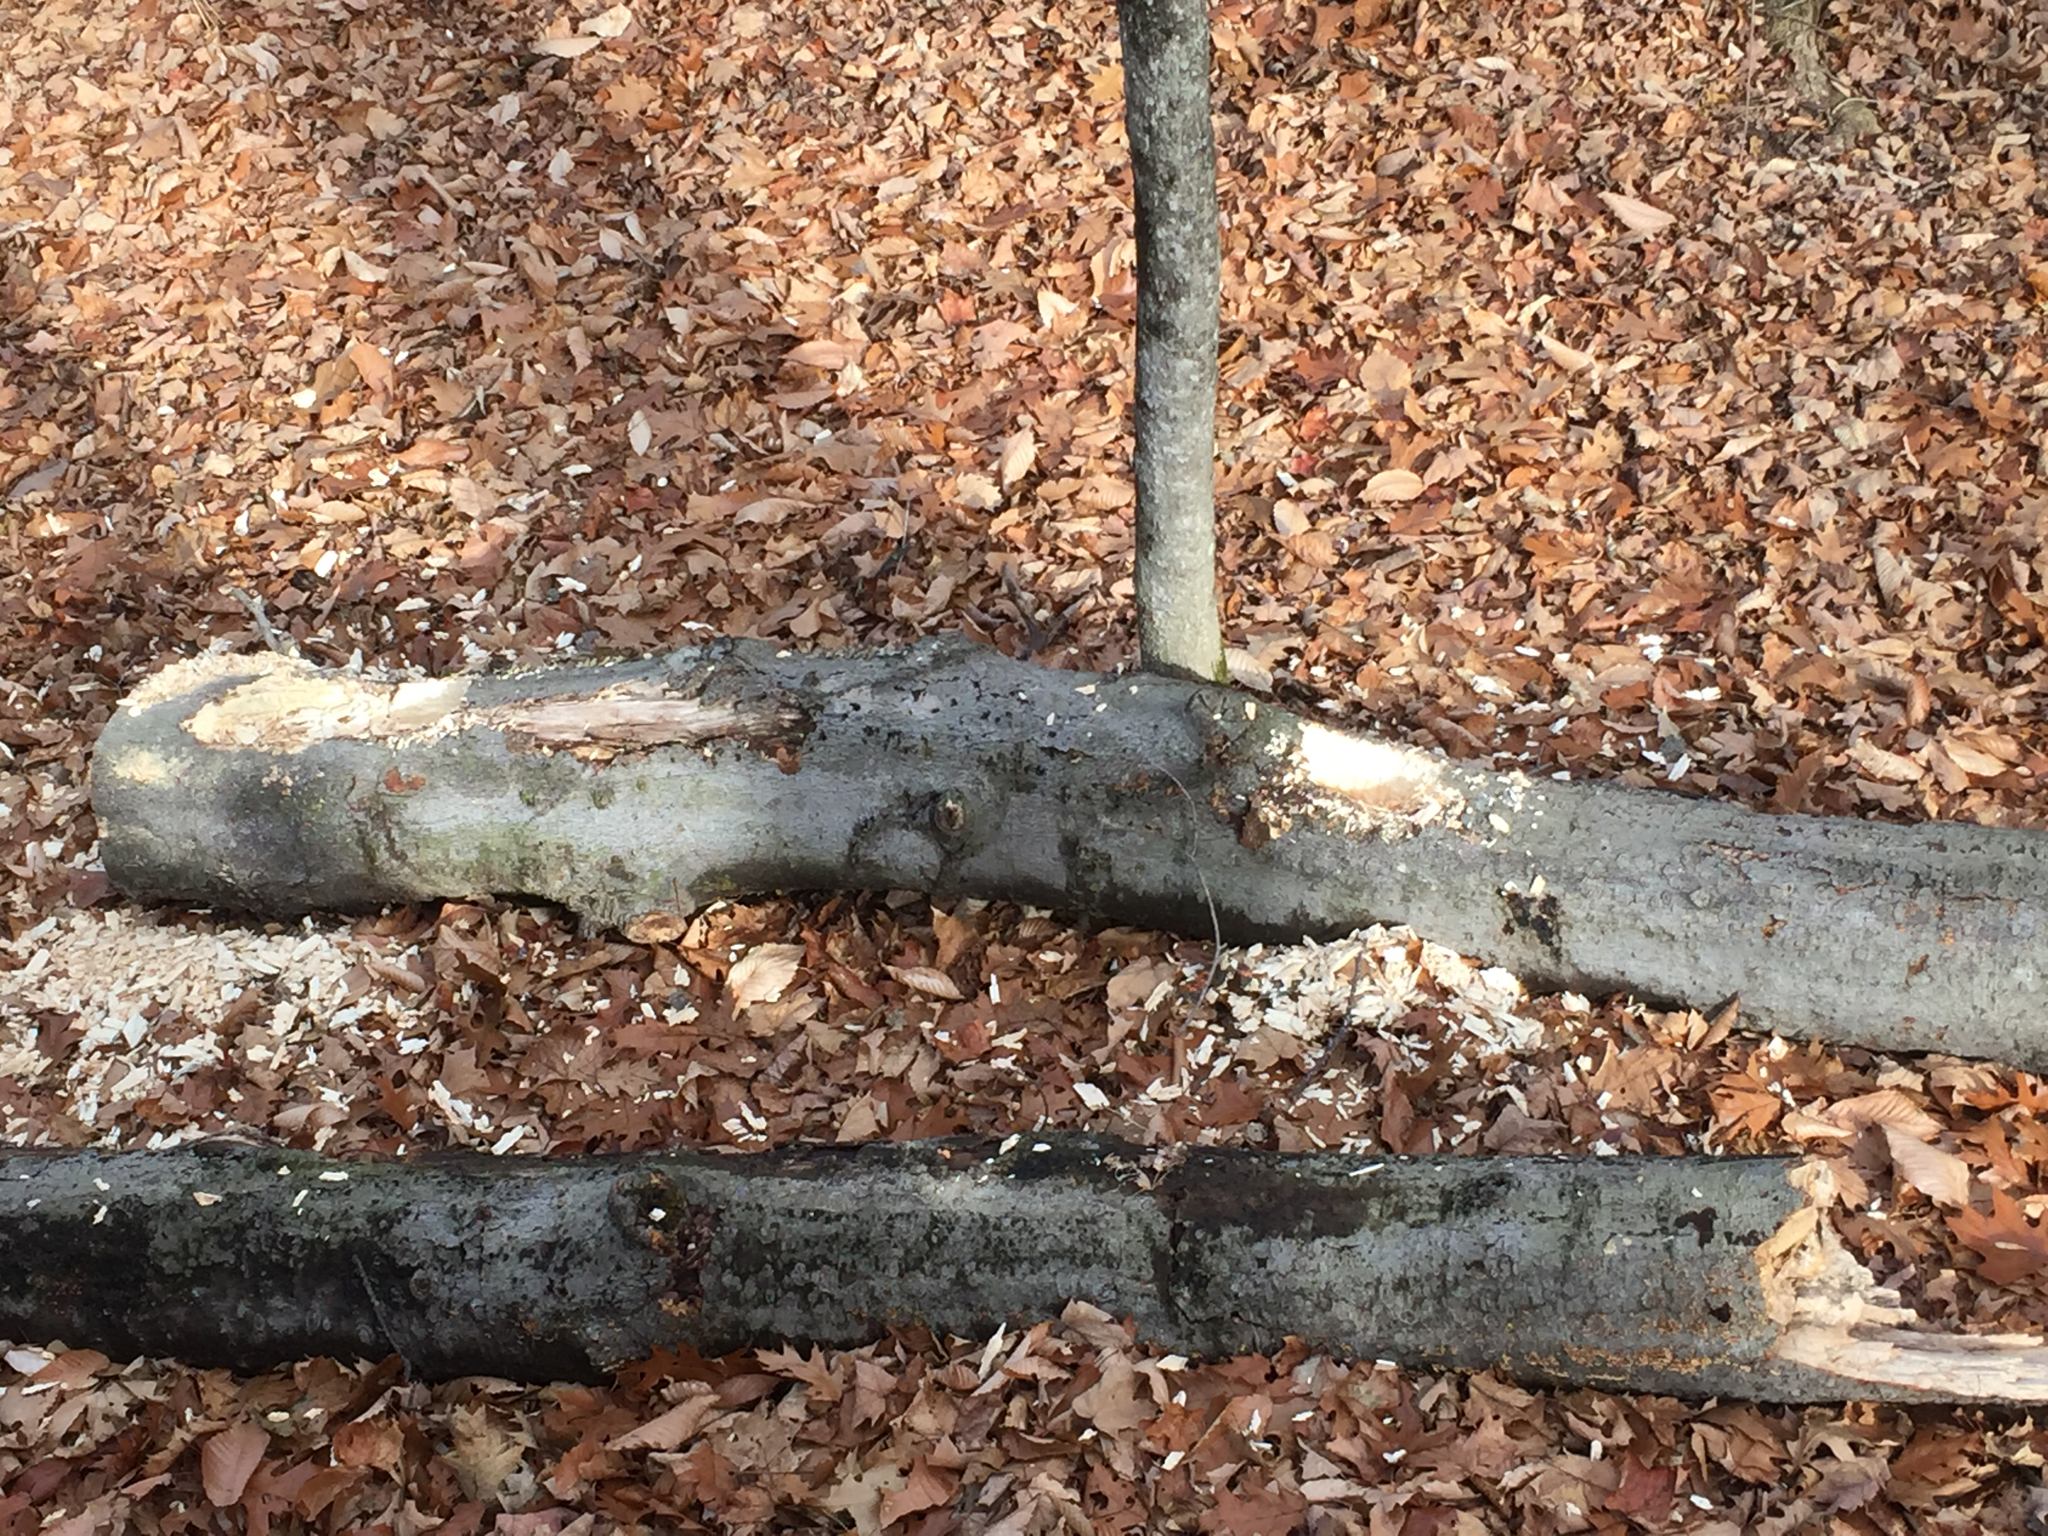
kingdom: Animalia
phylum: Chordata
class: Aves
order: Piciformes
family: Picidae
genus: Dryocopus
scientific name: Dryocopus pileatus
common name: Pileated woodpecker
